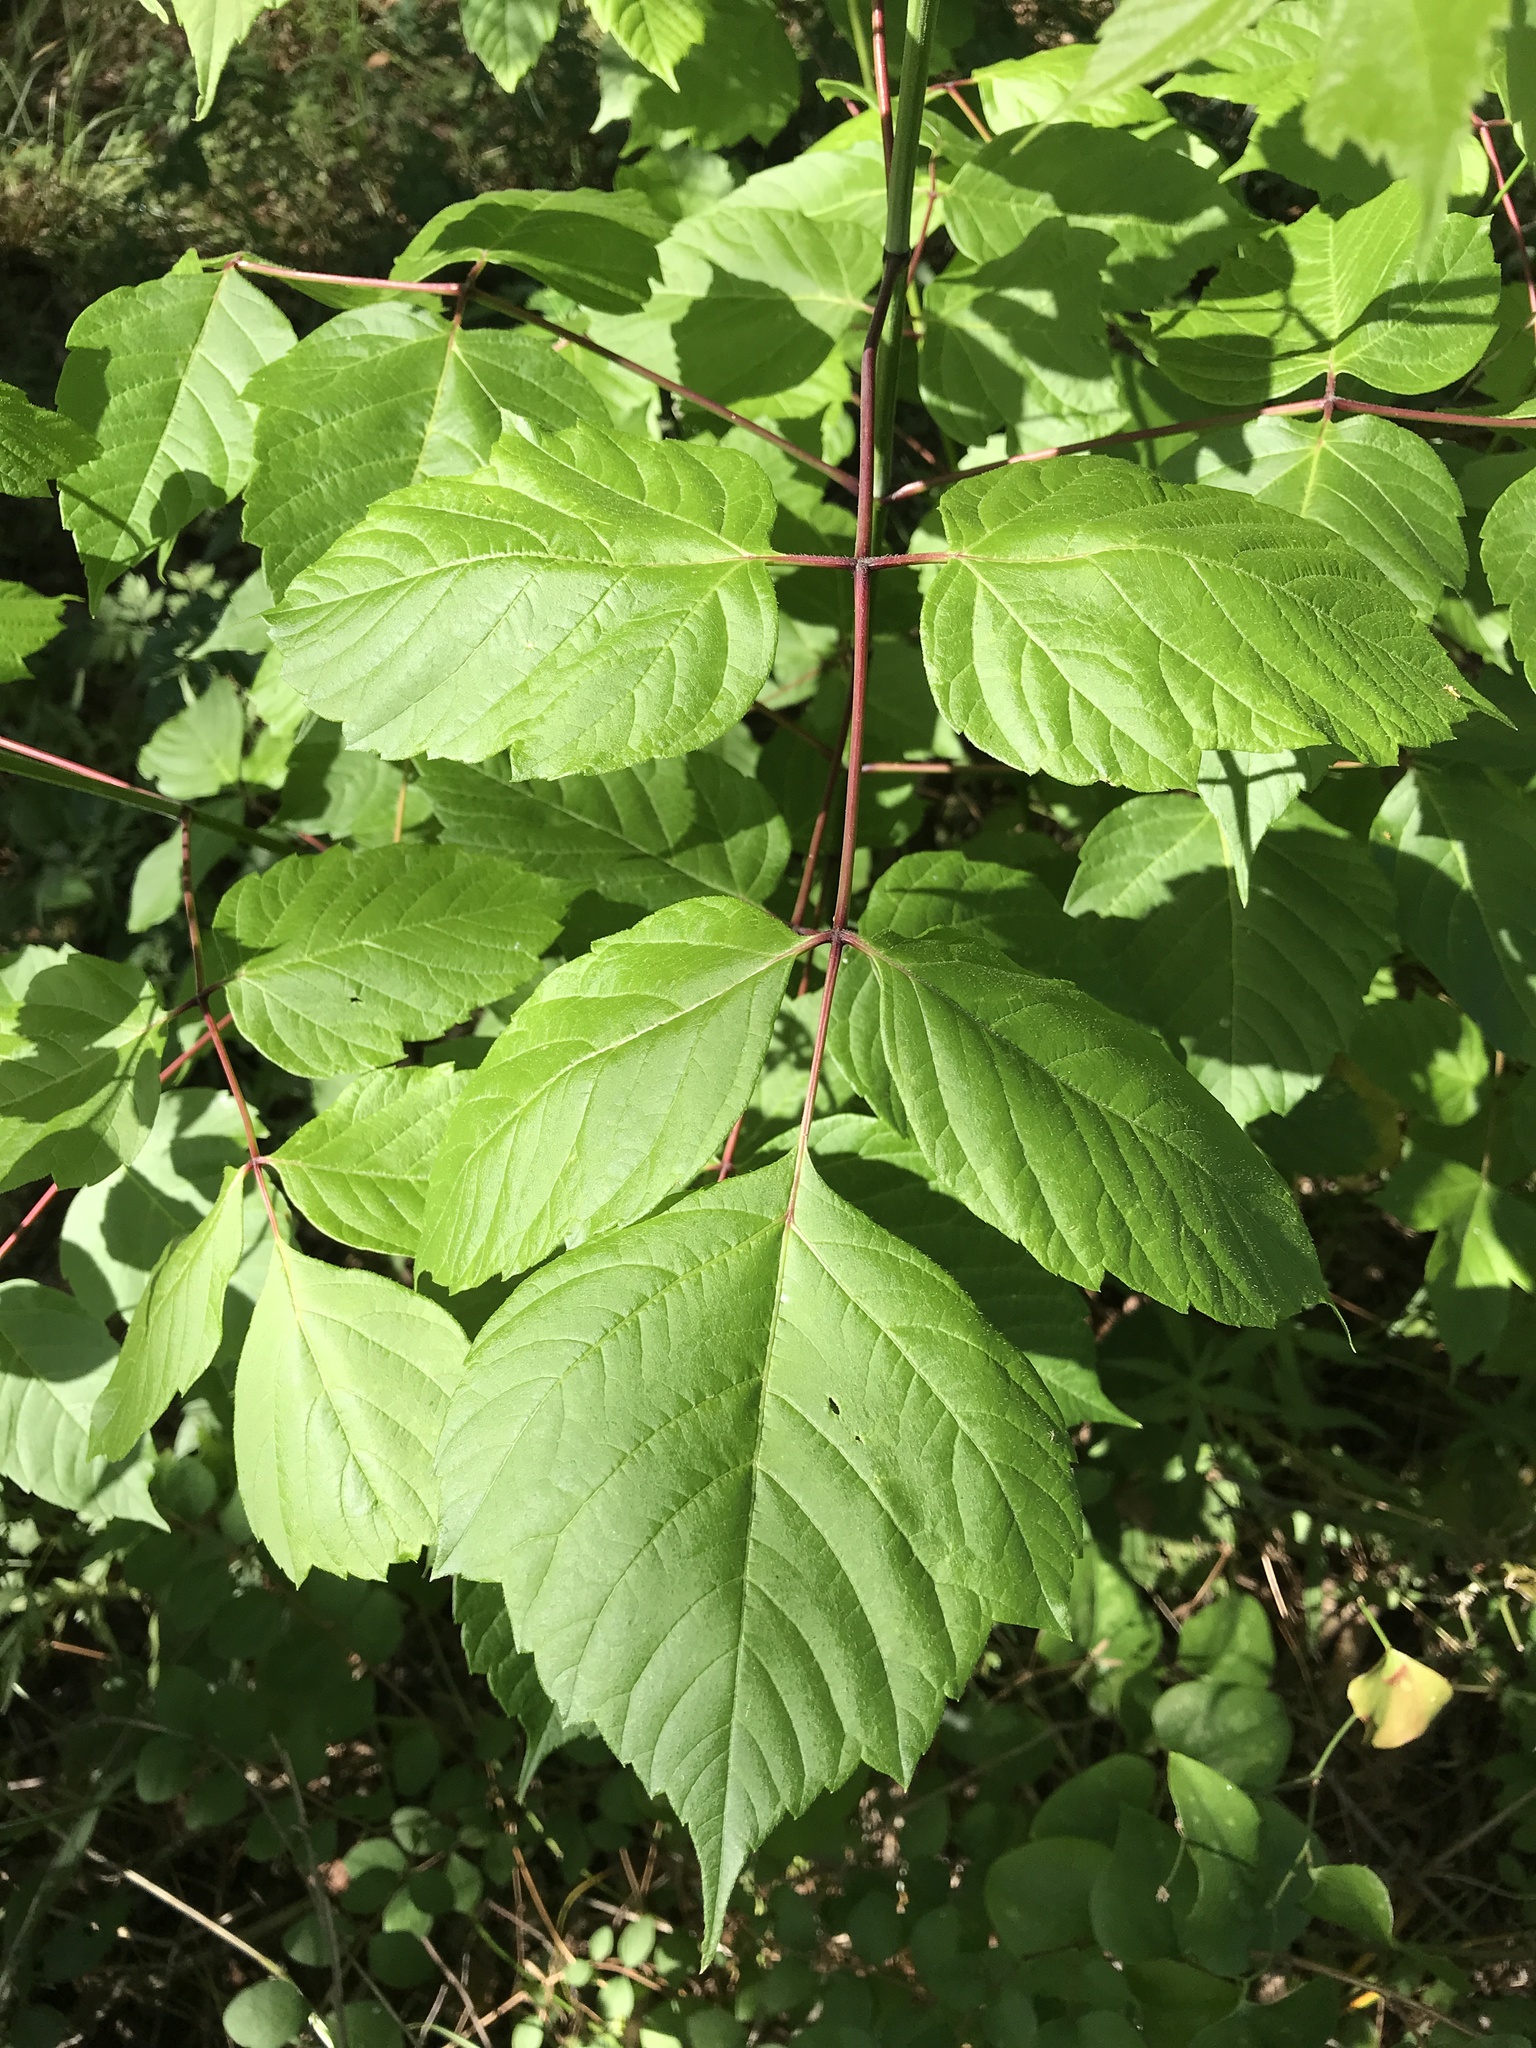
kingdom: Plantae
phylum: Tracheophyta
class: Magnoliopsida
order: Sapindales
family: Sapindaceae
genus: Acer
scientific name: Acer negundo
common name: Ashleaf maple
